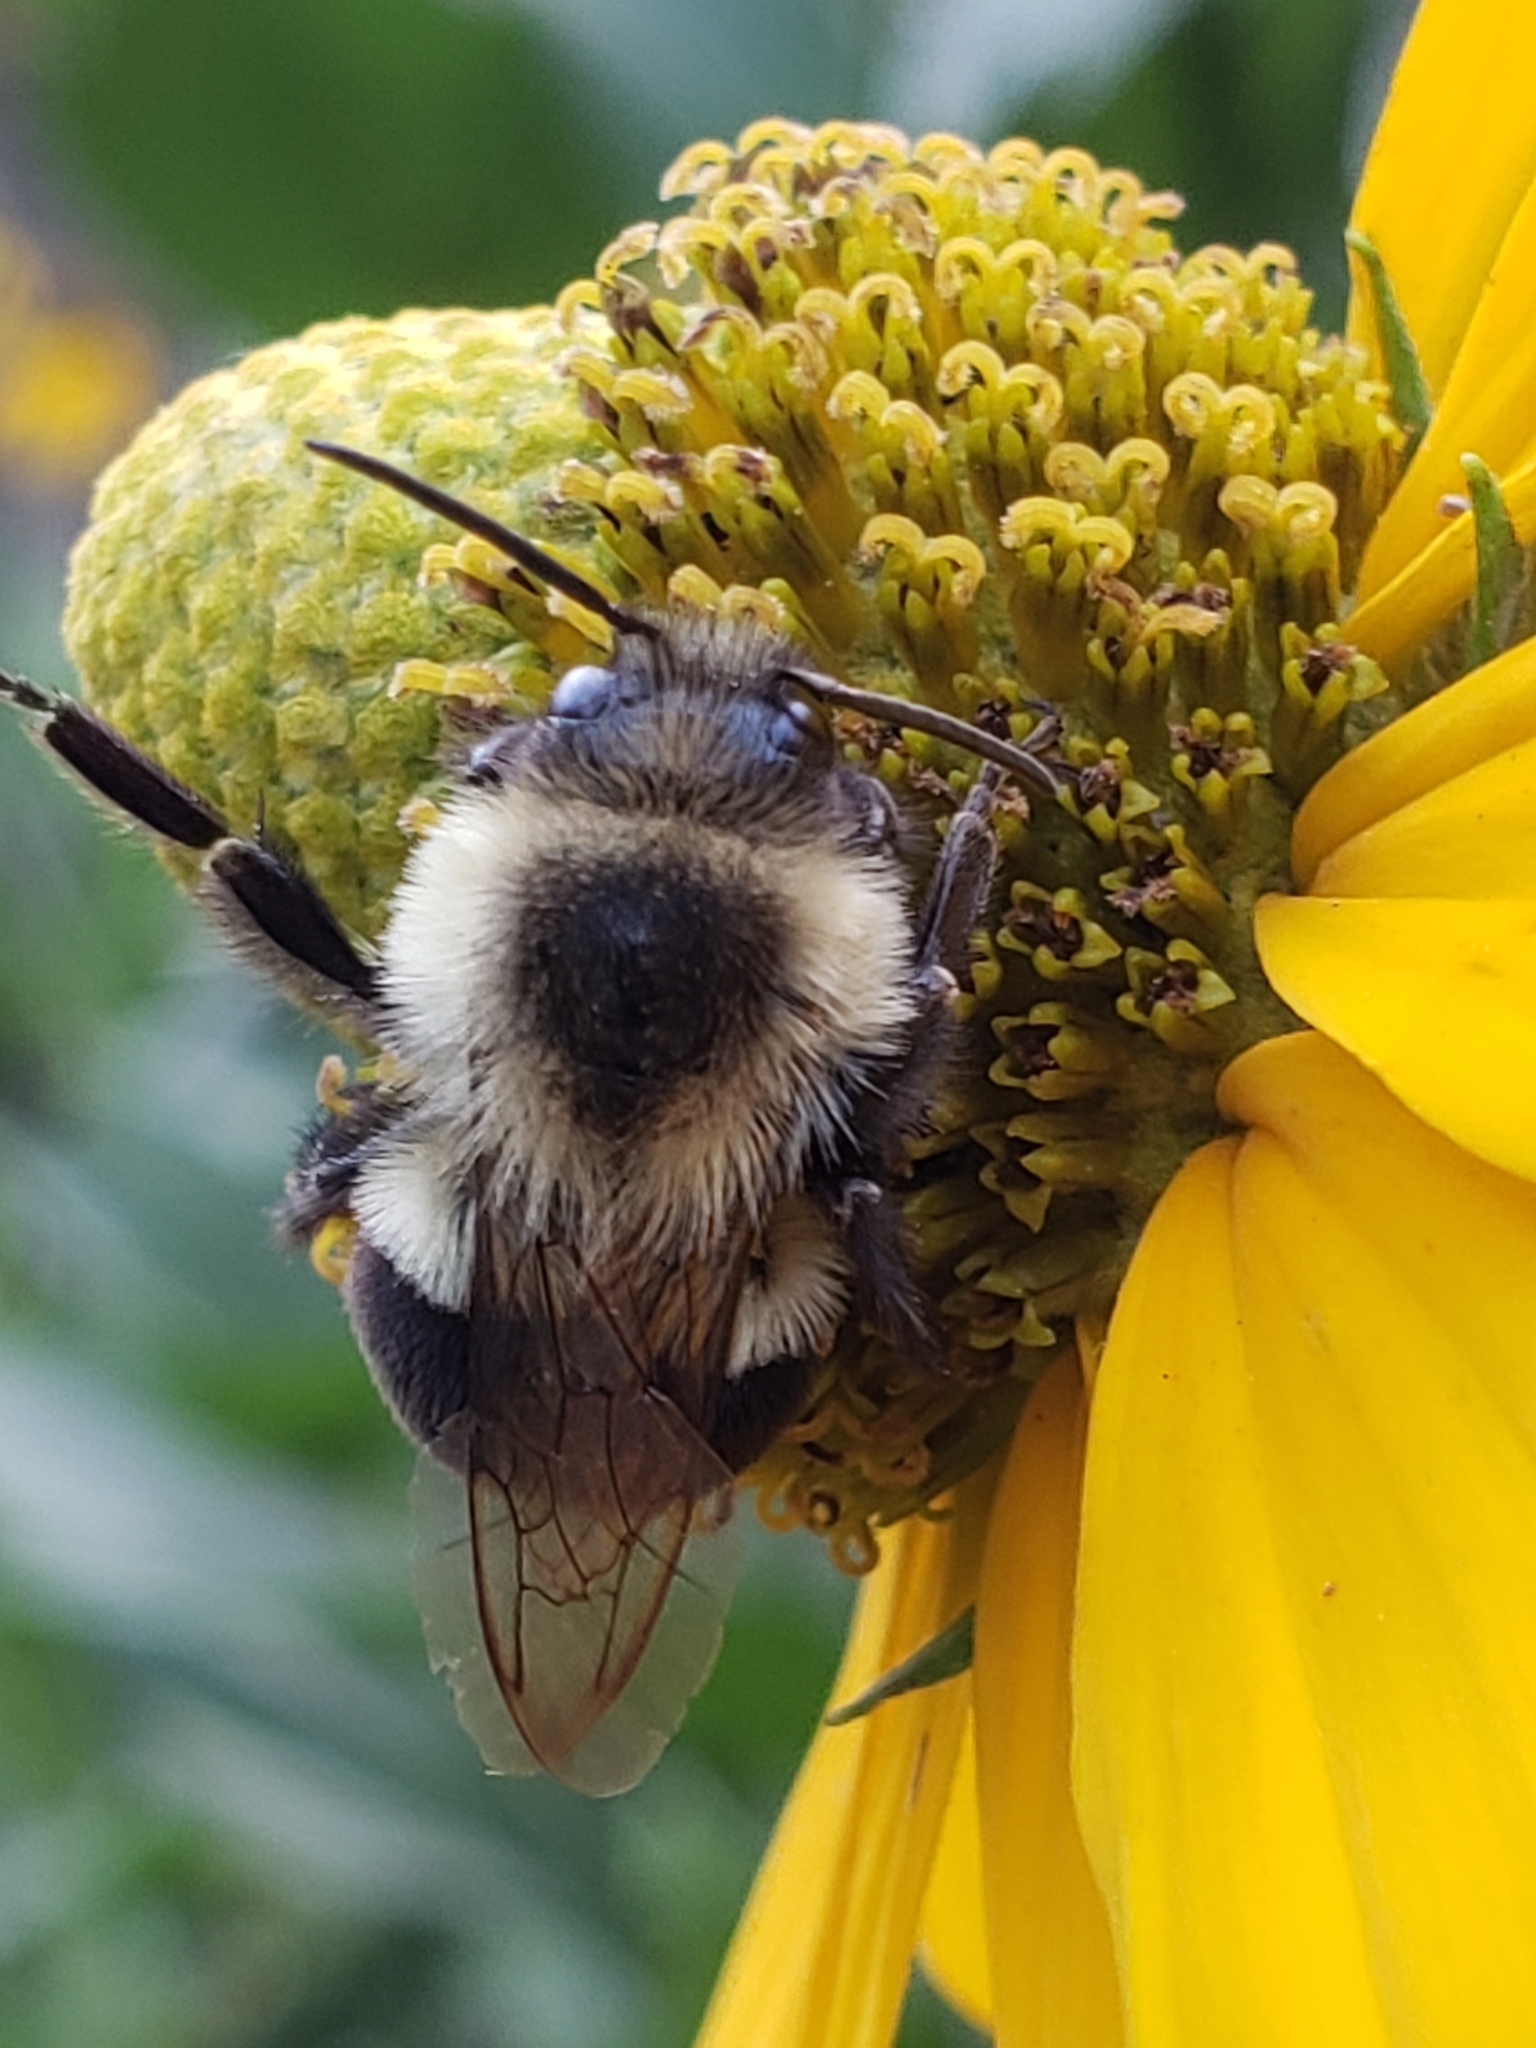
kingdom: Animalia
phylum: Arthropoda
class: Insecta
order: Hymenoptera
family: Apidae
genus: Bombus
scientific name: Bombus impatiens
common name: Common eastern bumble bee
